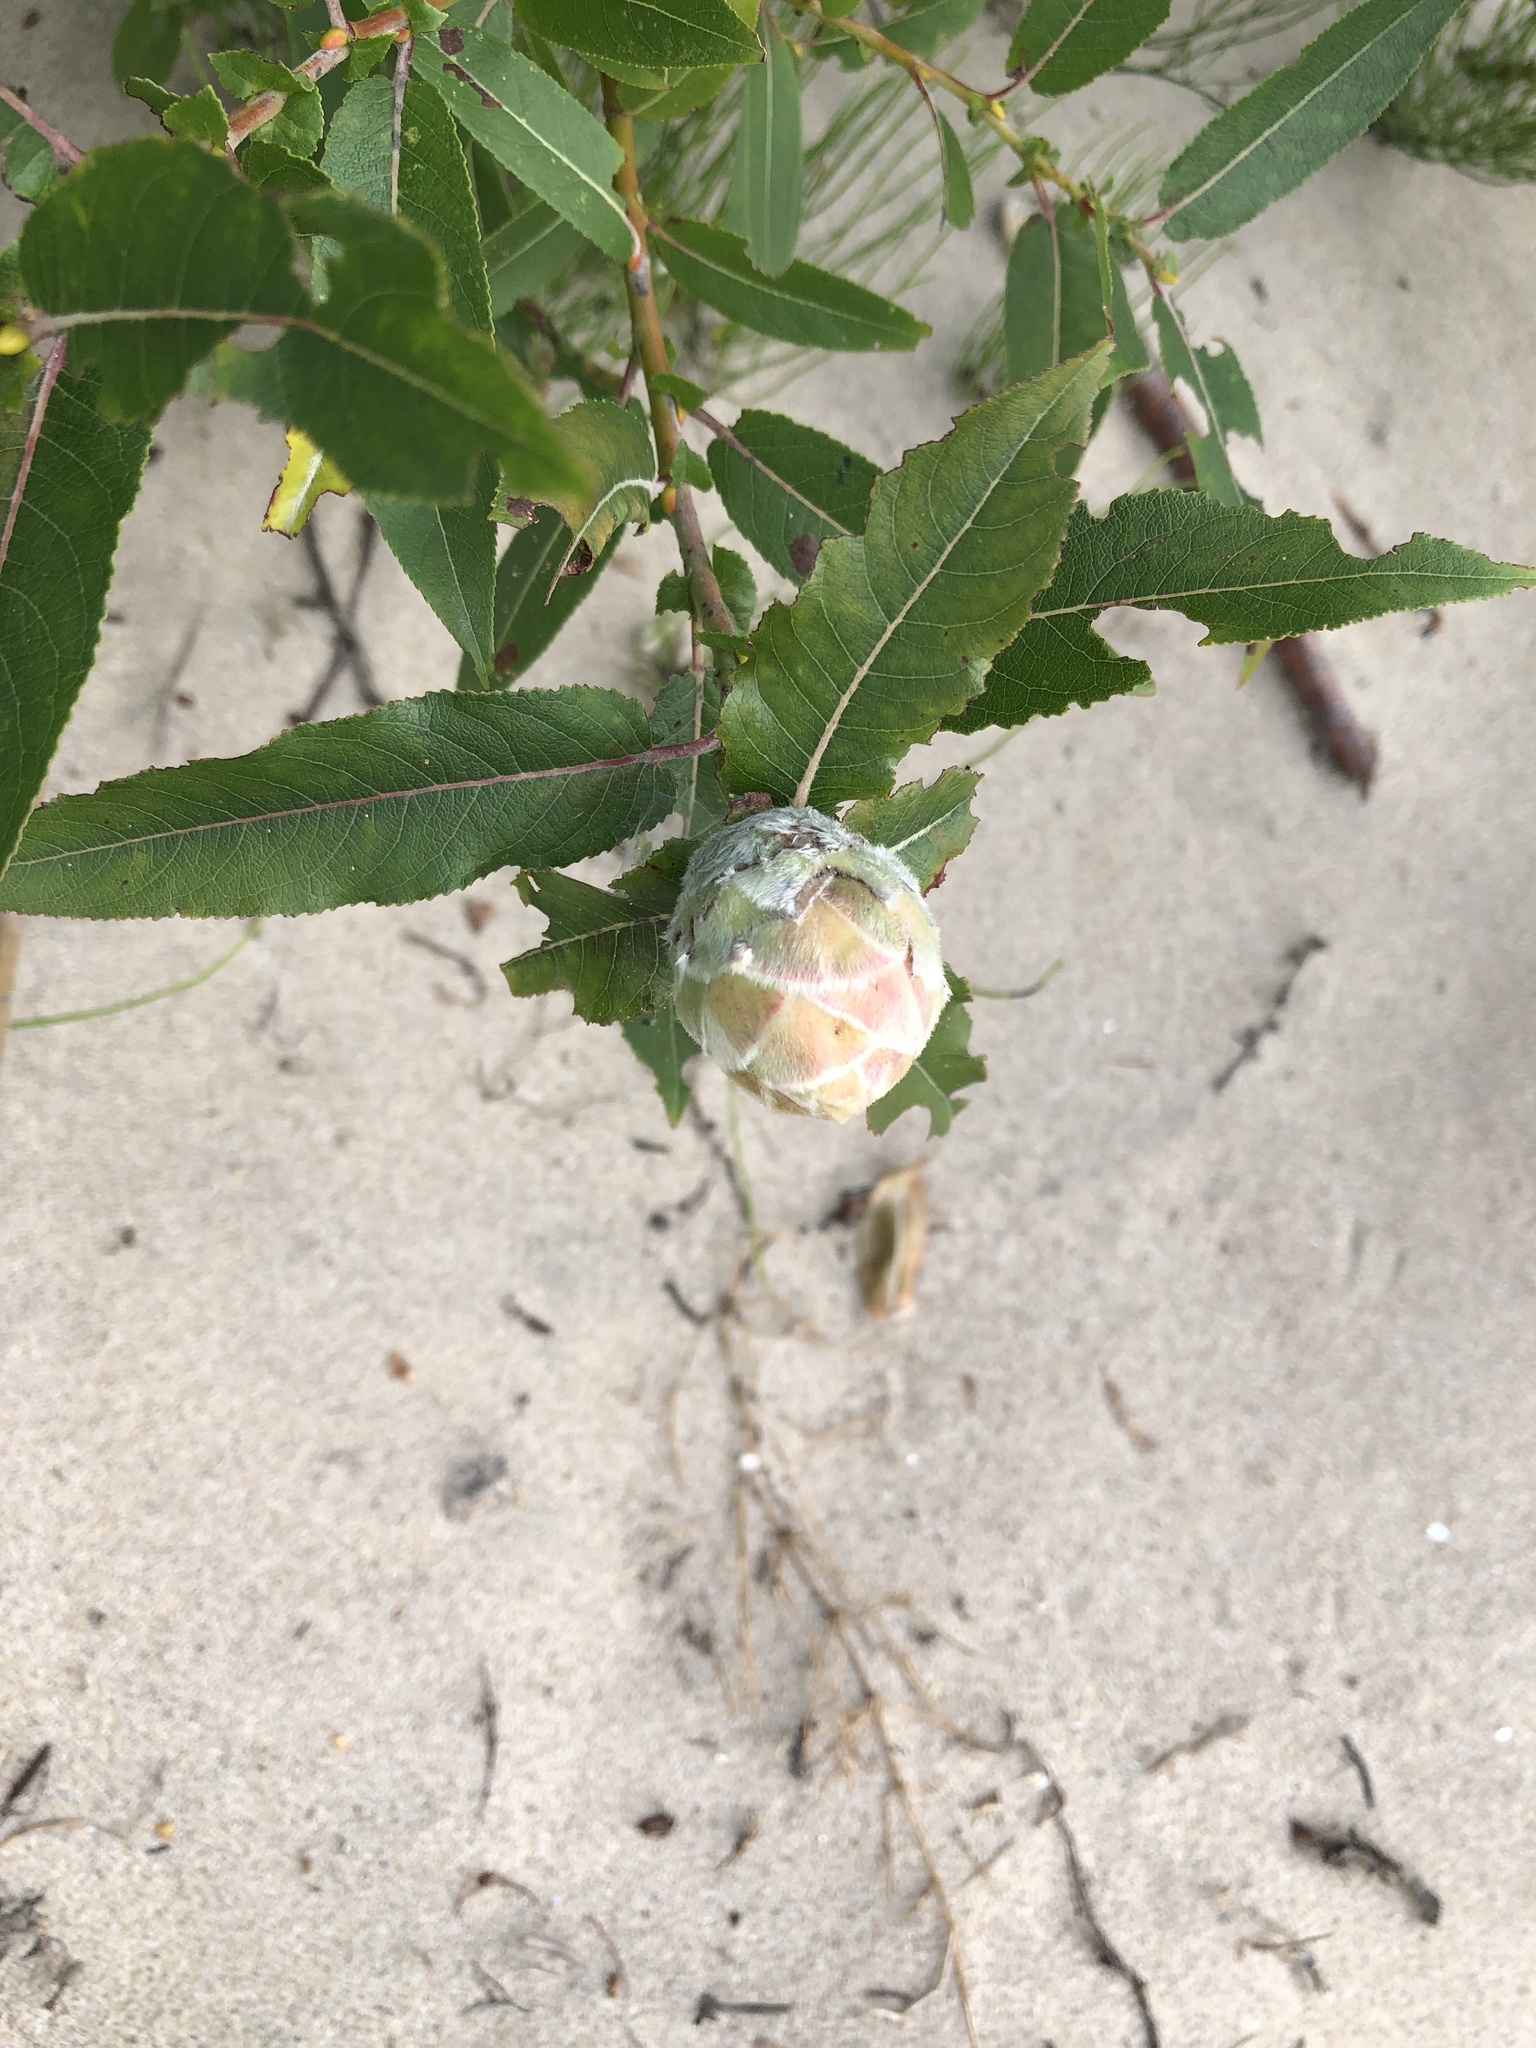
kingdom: Animalia
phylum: Arthropoda
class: Insecta
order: Diptera
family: Cecidomyiidae
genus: Rabdophaga
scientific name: Rabdophaga strobiloides
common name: Willow pinecone gall midge
